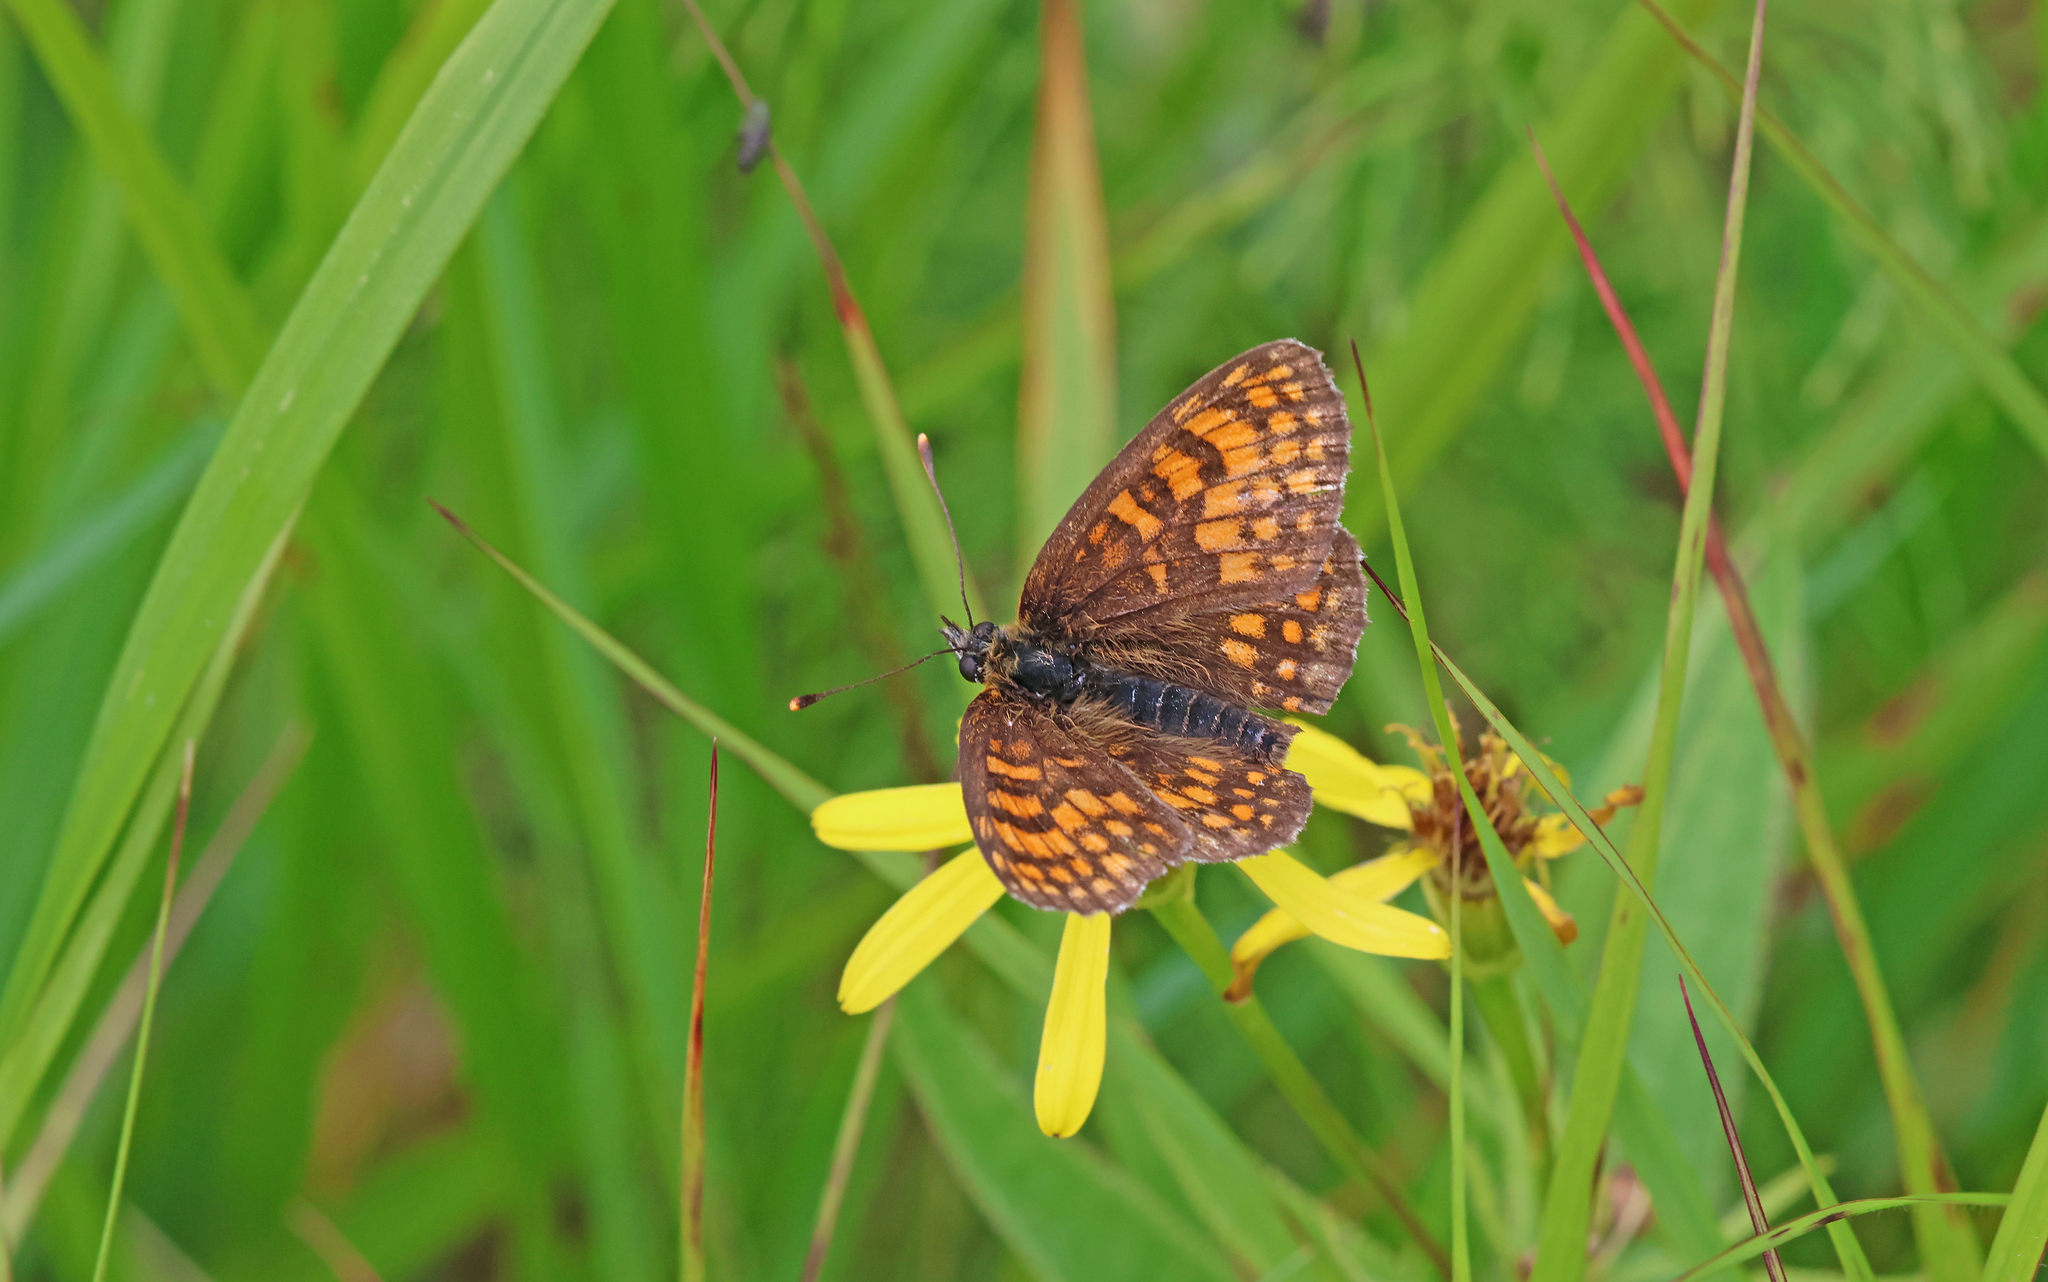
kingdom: Animalia
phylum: Arthropoda
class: Insecta
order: Lepidoptera
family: Nymphalidae
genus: Melitaea
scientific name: Melitaea athalia
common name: Heath fritillary
